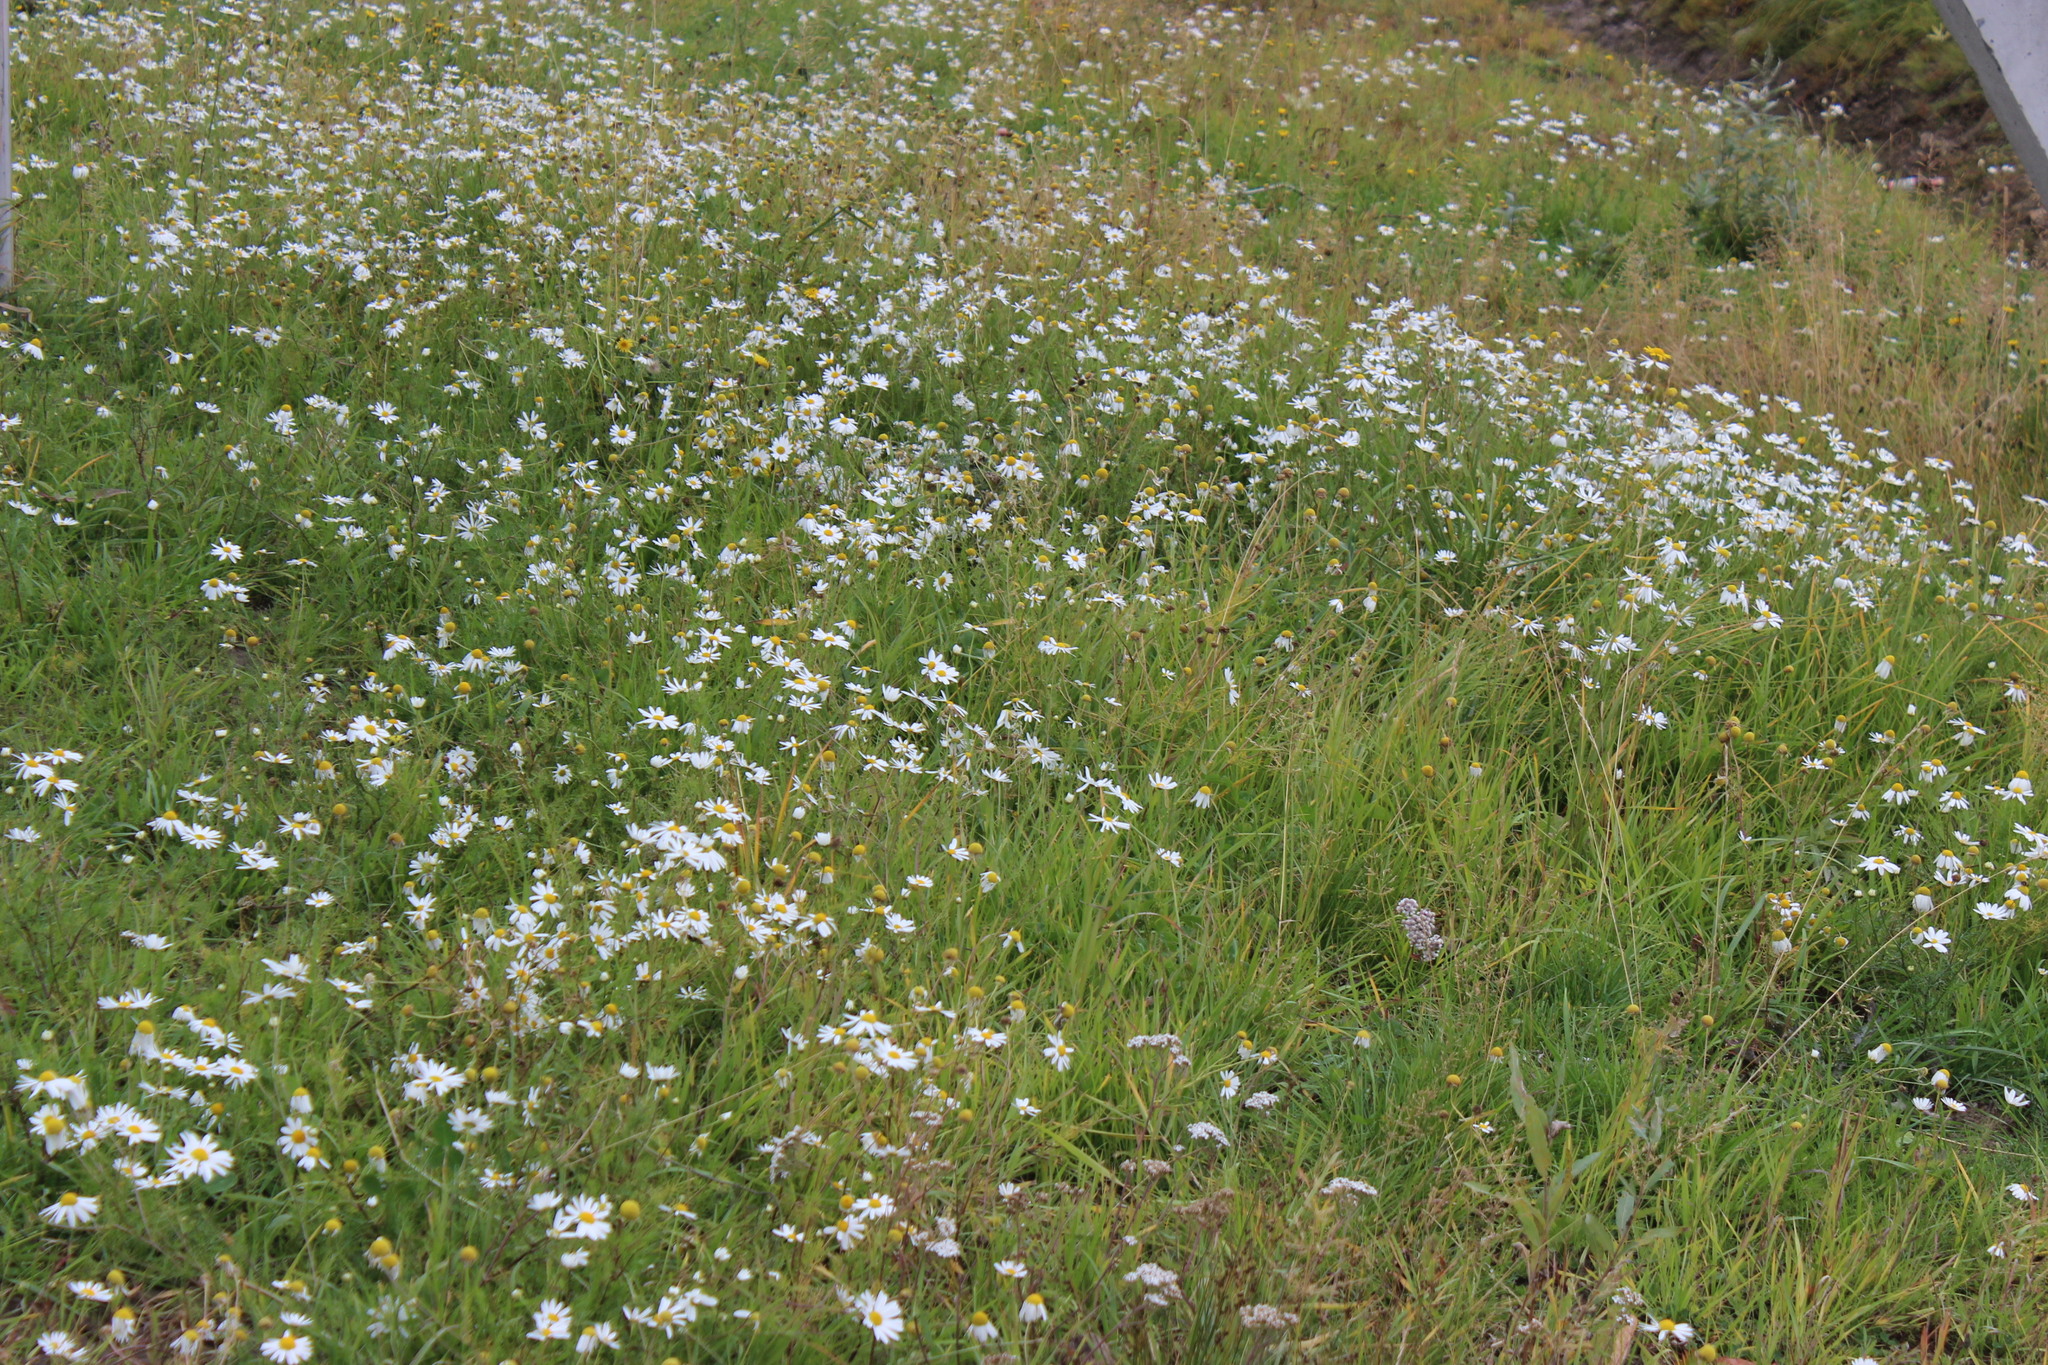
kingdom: Plantae
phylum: Tracheophyta
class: Magnoliopsida
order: Asterales
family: Asteraceae
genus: Tripleurospermum
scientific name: Tripleurospermum inodorum
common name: Scentless mayweed
